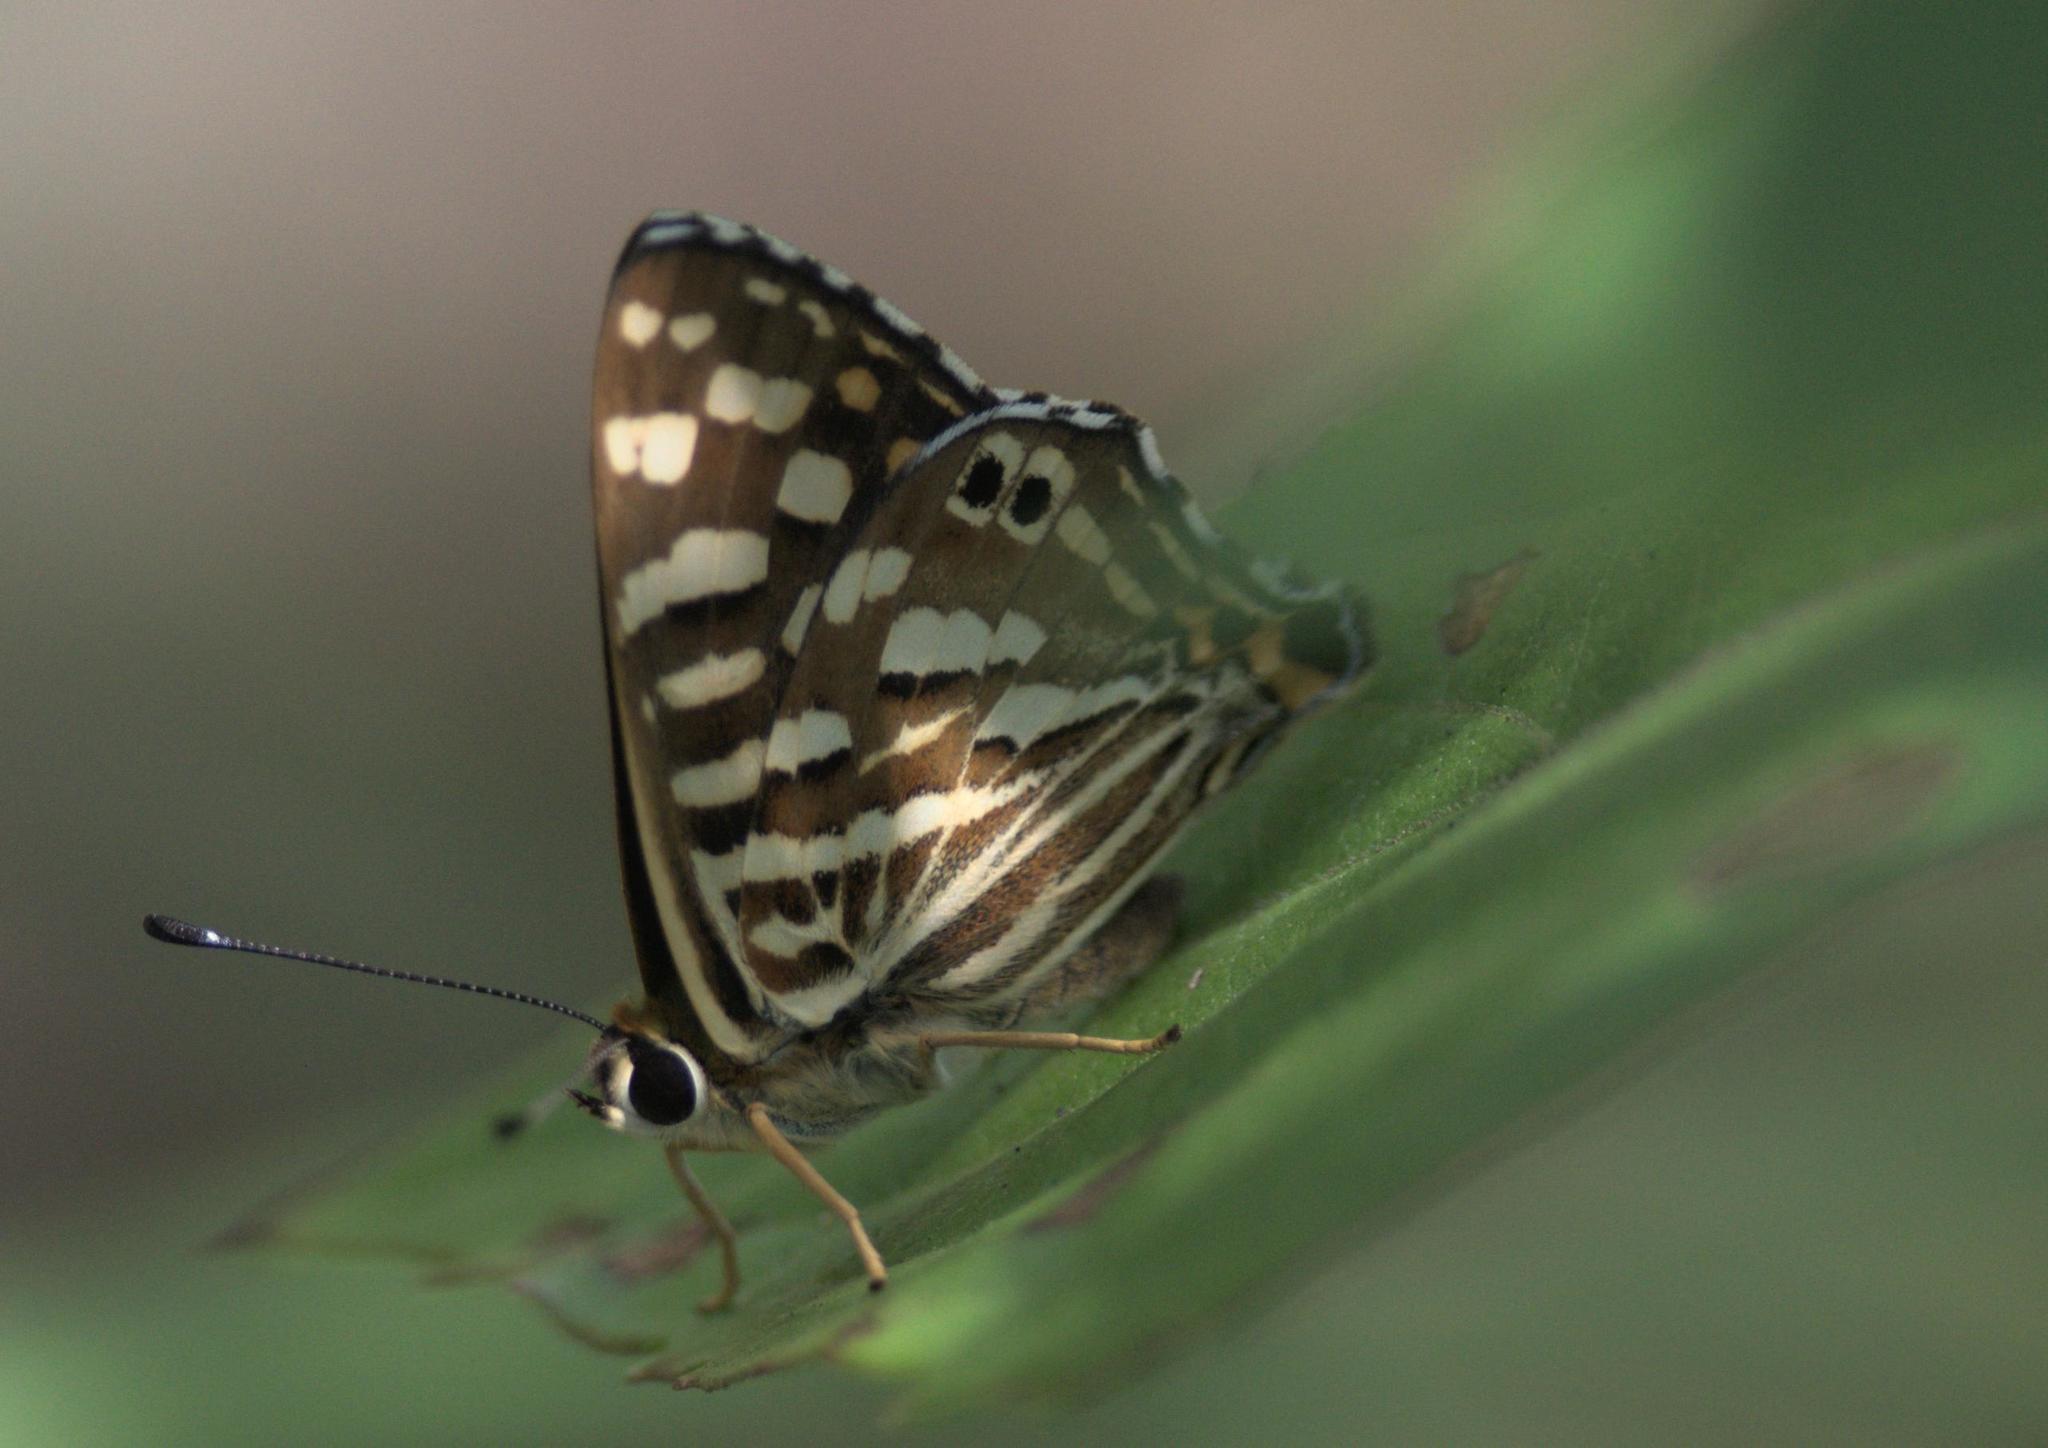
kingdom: Animalia
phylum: Arthropoda
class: Insecta
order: Lepidoptera
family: Lycaenidae
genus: Dodona
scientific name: Dodona durga
